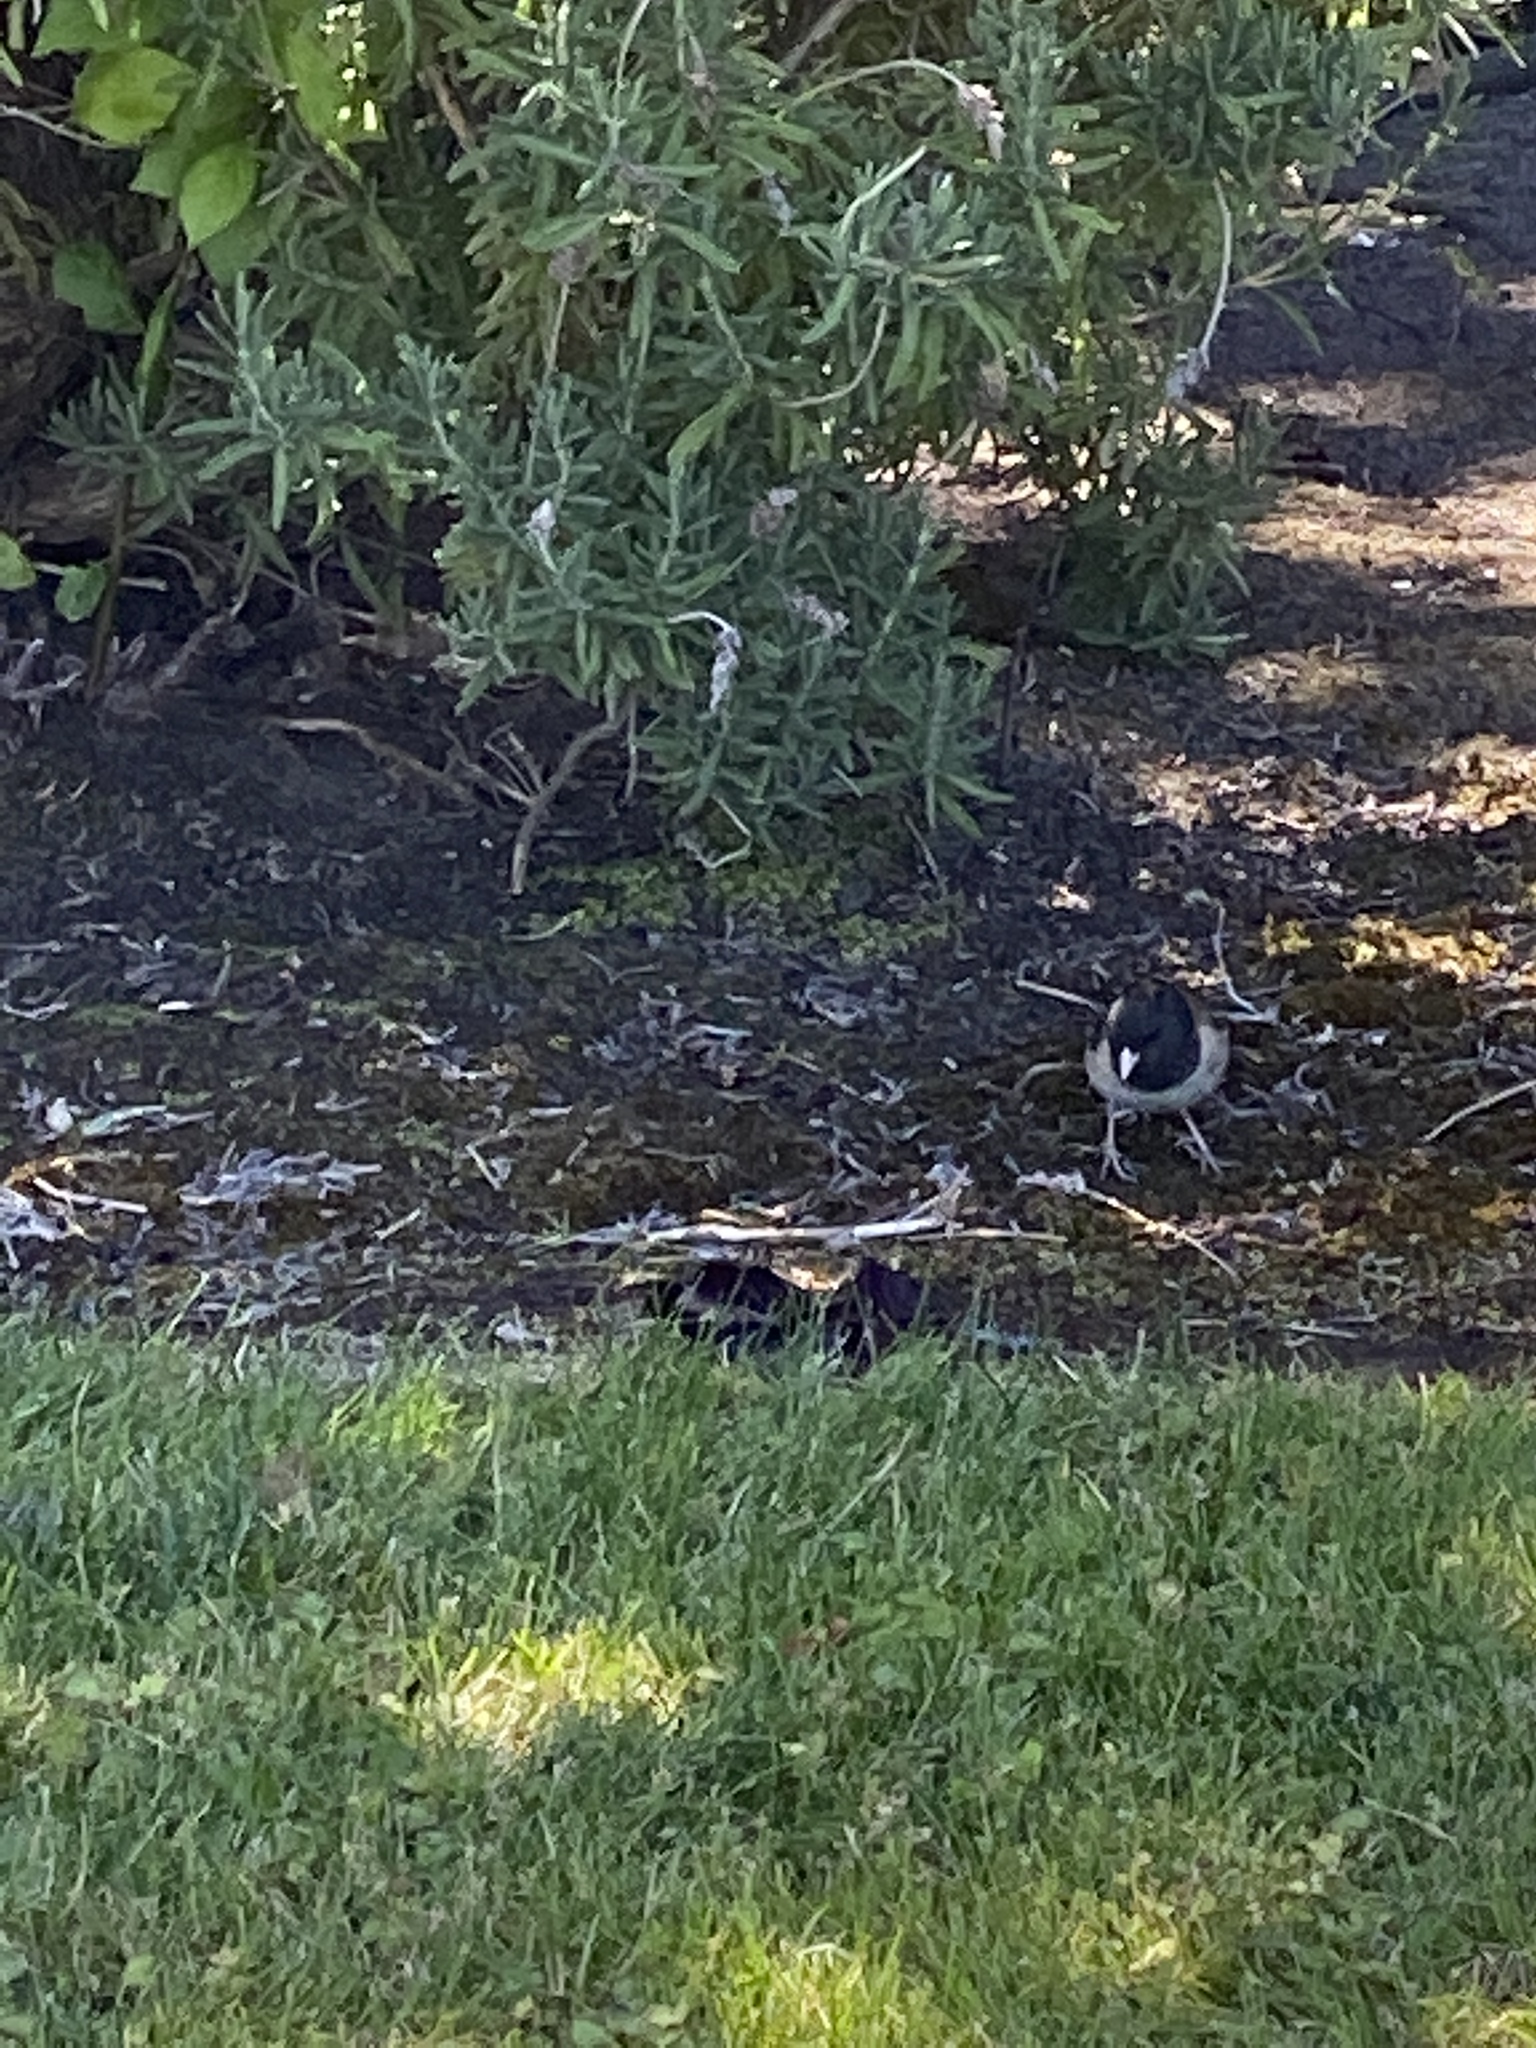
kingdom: Animalia
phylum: Chordata
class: Aves
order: Passeriformes
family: Passerellidae
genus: Junco
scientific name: Junco hyemalis
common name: Dark-eyed junco
